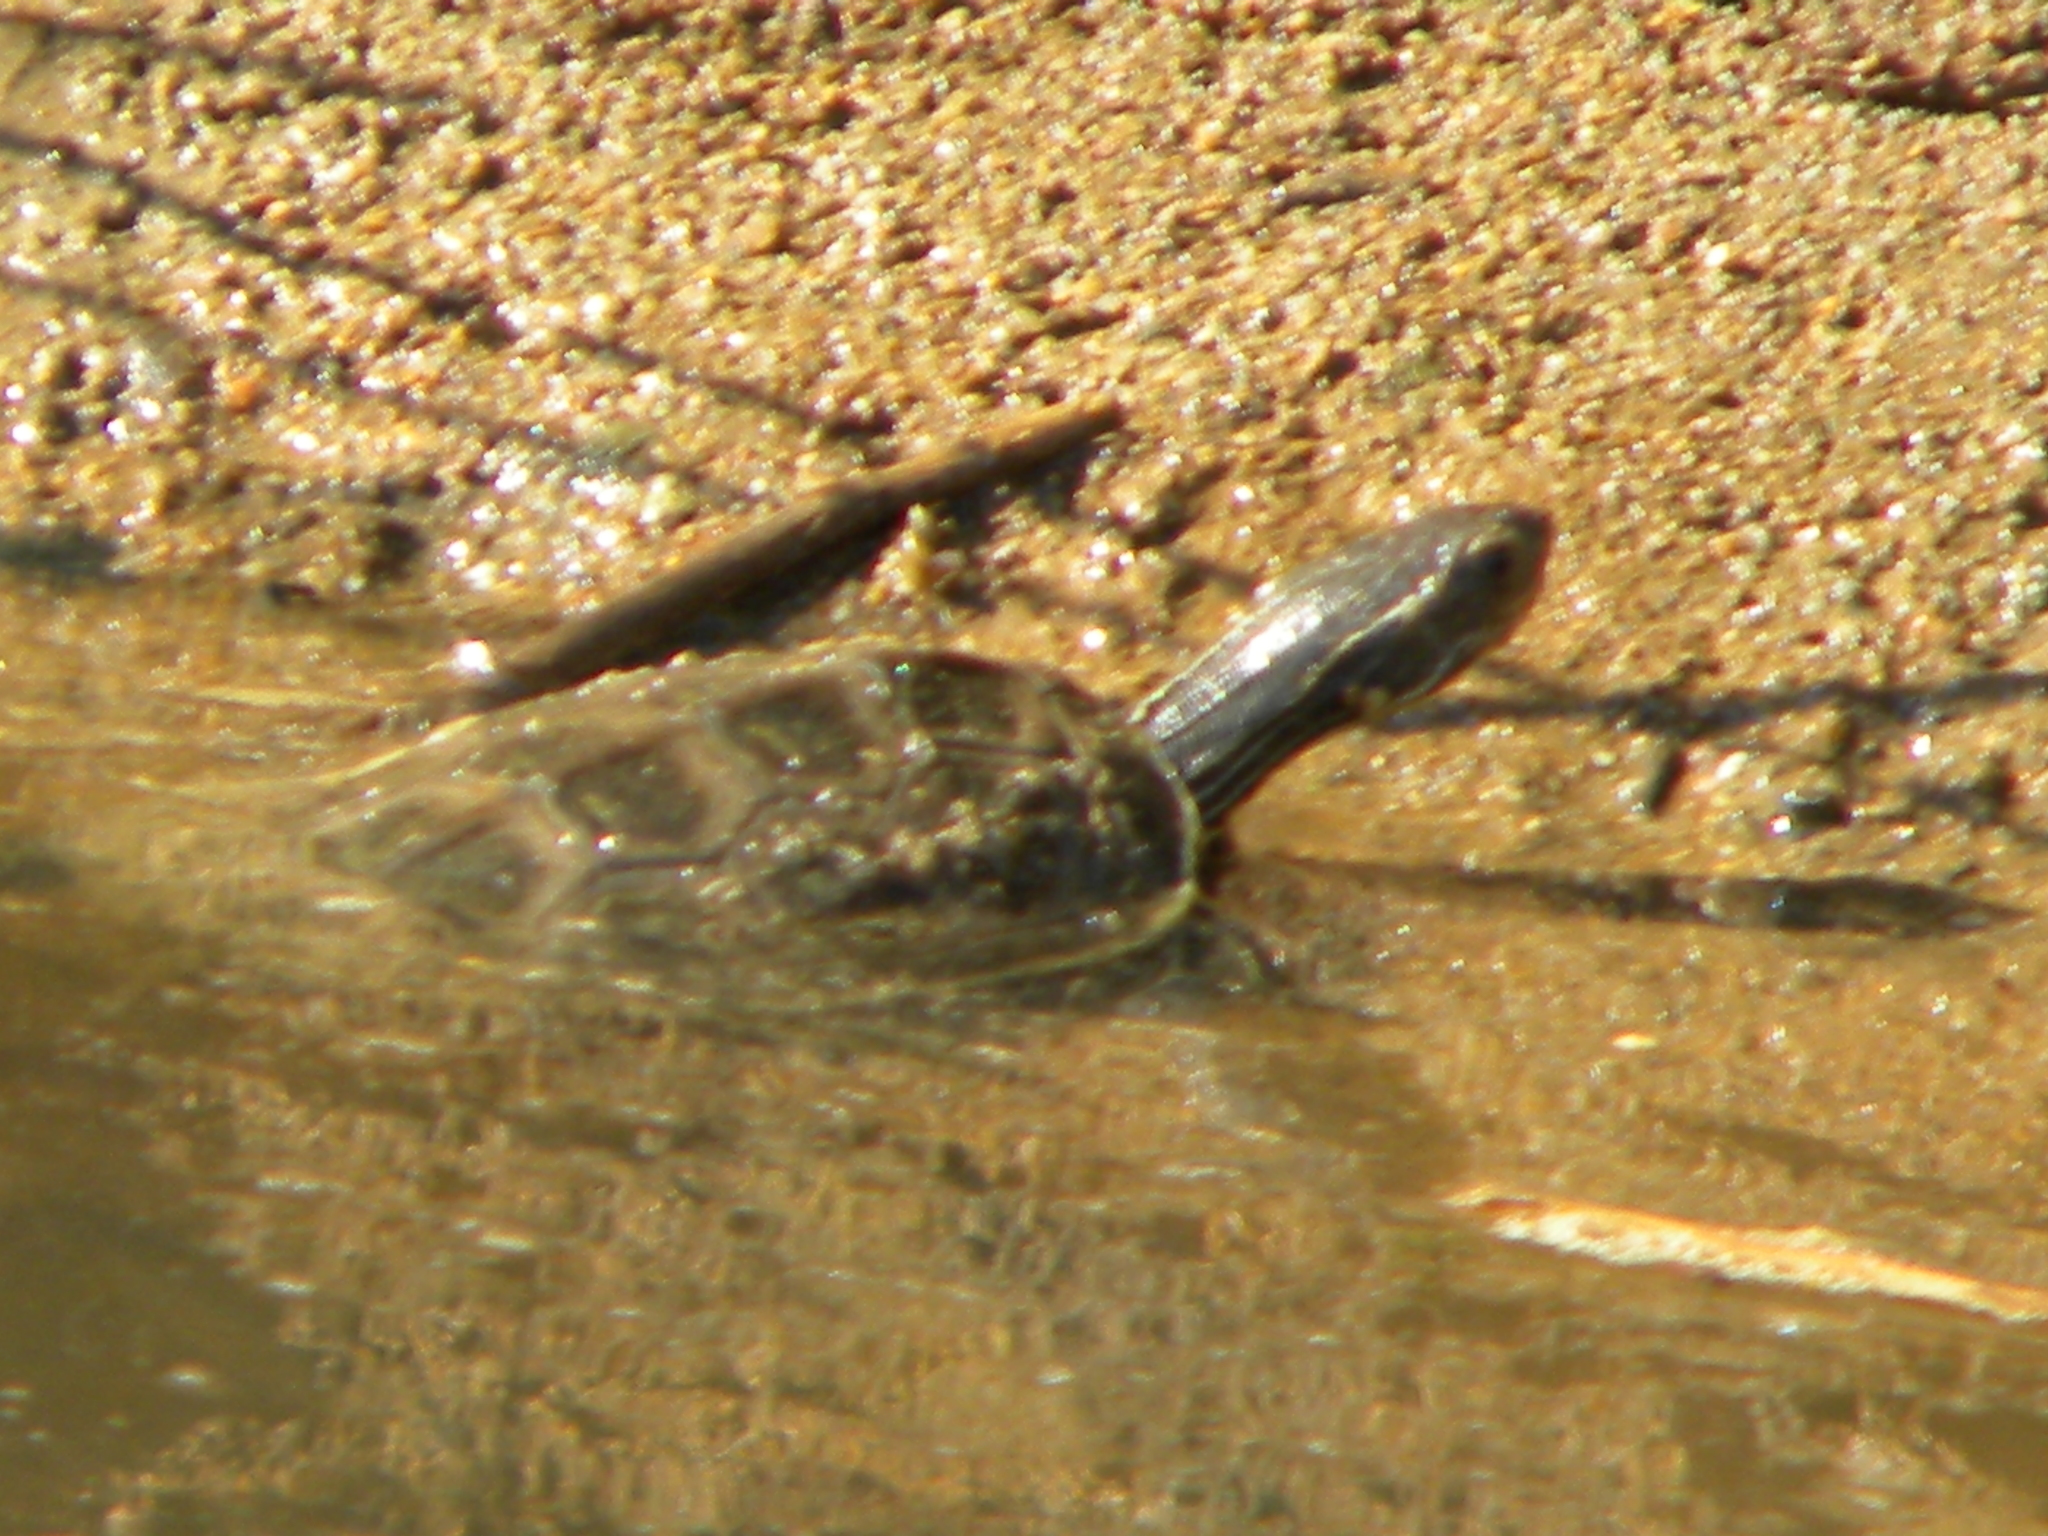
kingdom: Animalia
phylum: Chordata
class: Testudines
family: Geoemydidae
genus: Mauremys
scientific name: Mauremys rivulata
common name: Western caspian turtle
